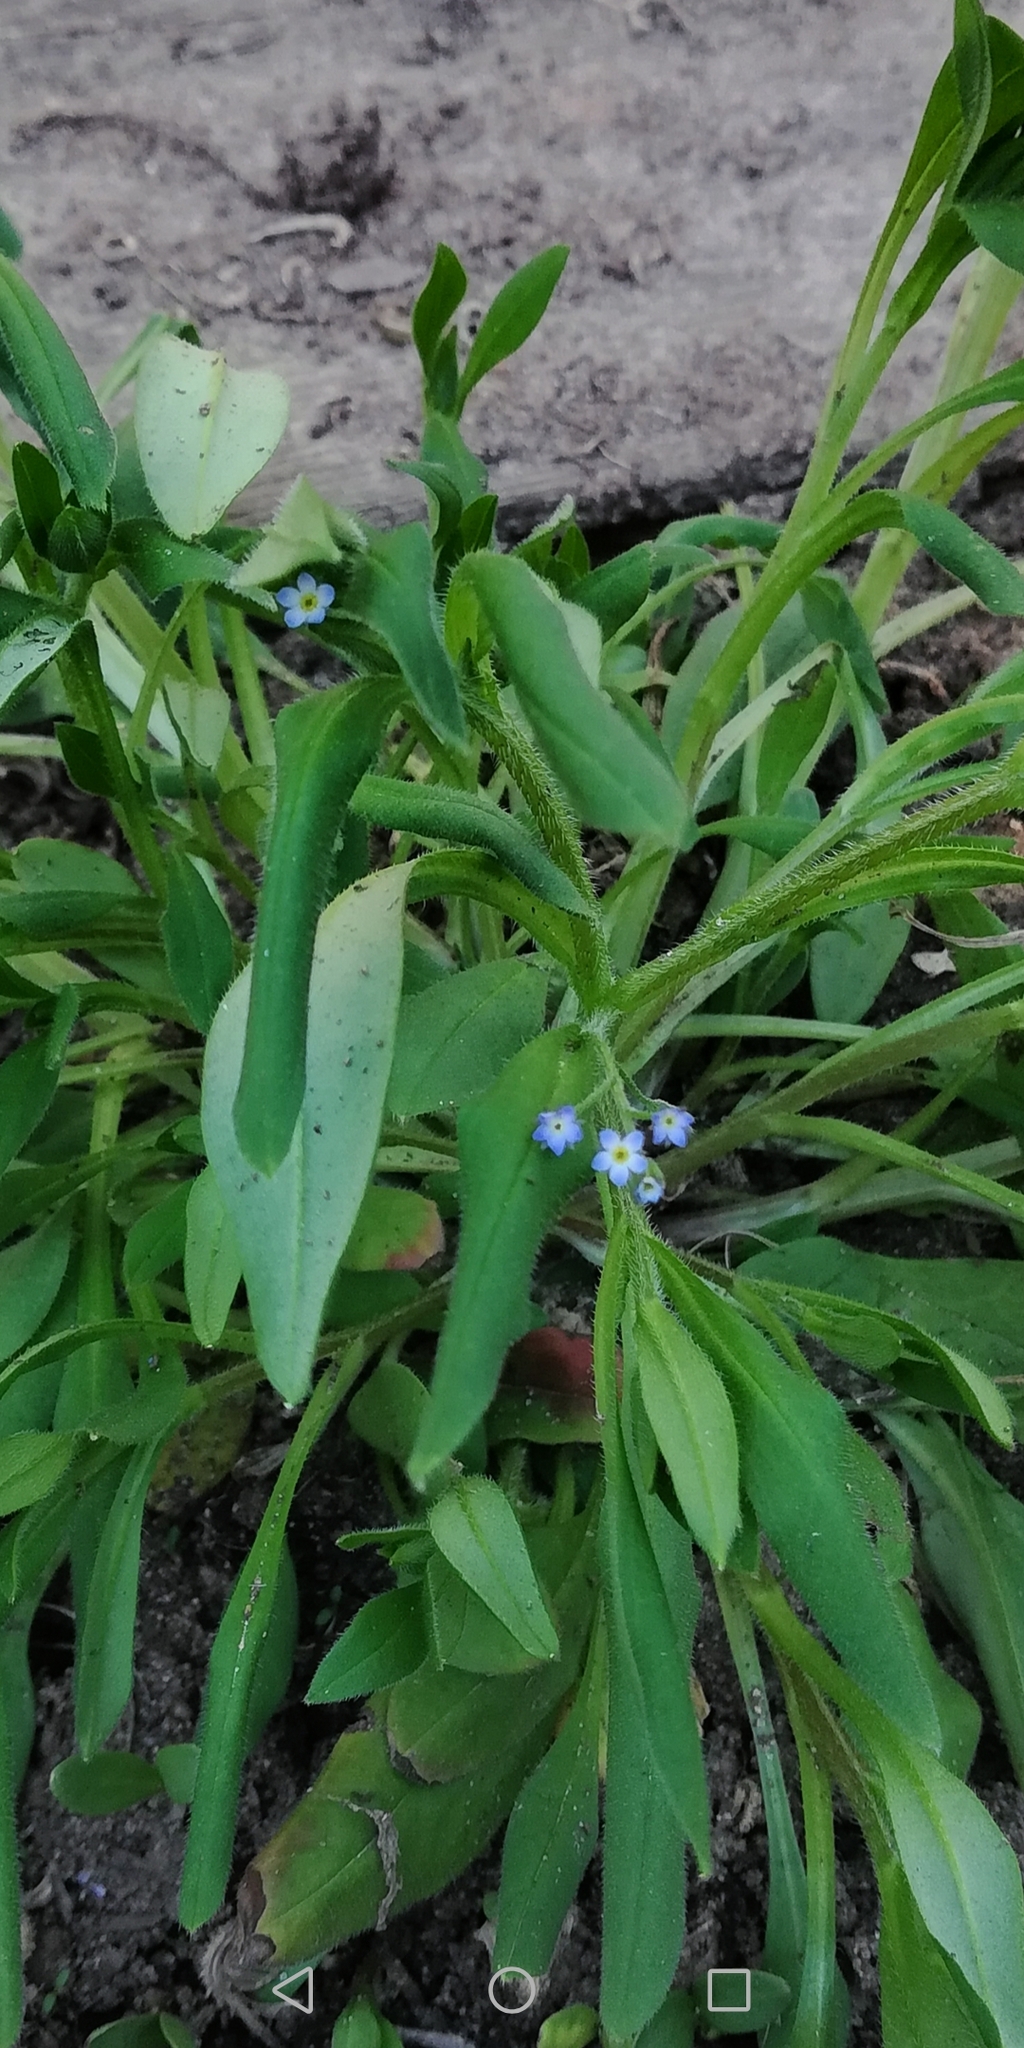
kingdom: Plantae
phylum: Tracheophyta
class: Magnoliopsida
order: Boraginales
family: Boraginaceae
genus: Myosotis
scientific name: Myosotis sparsiflora
